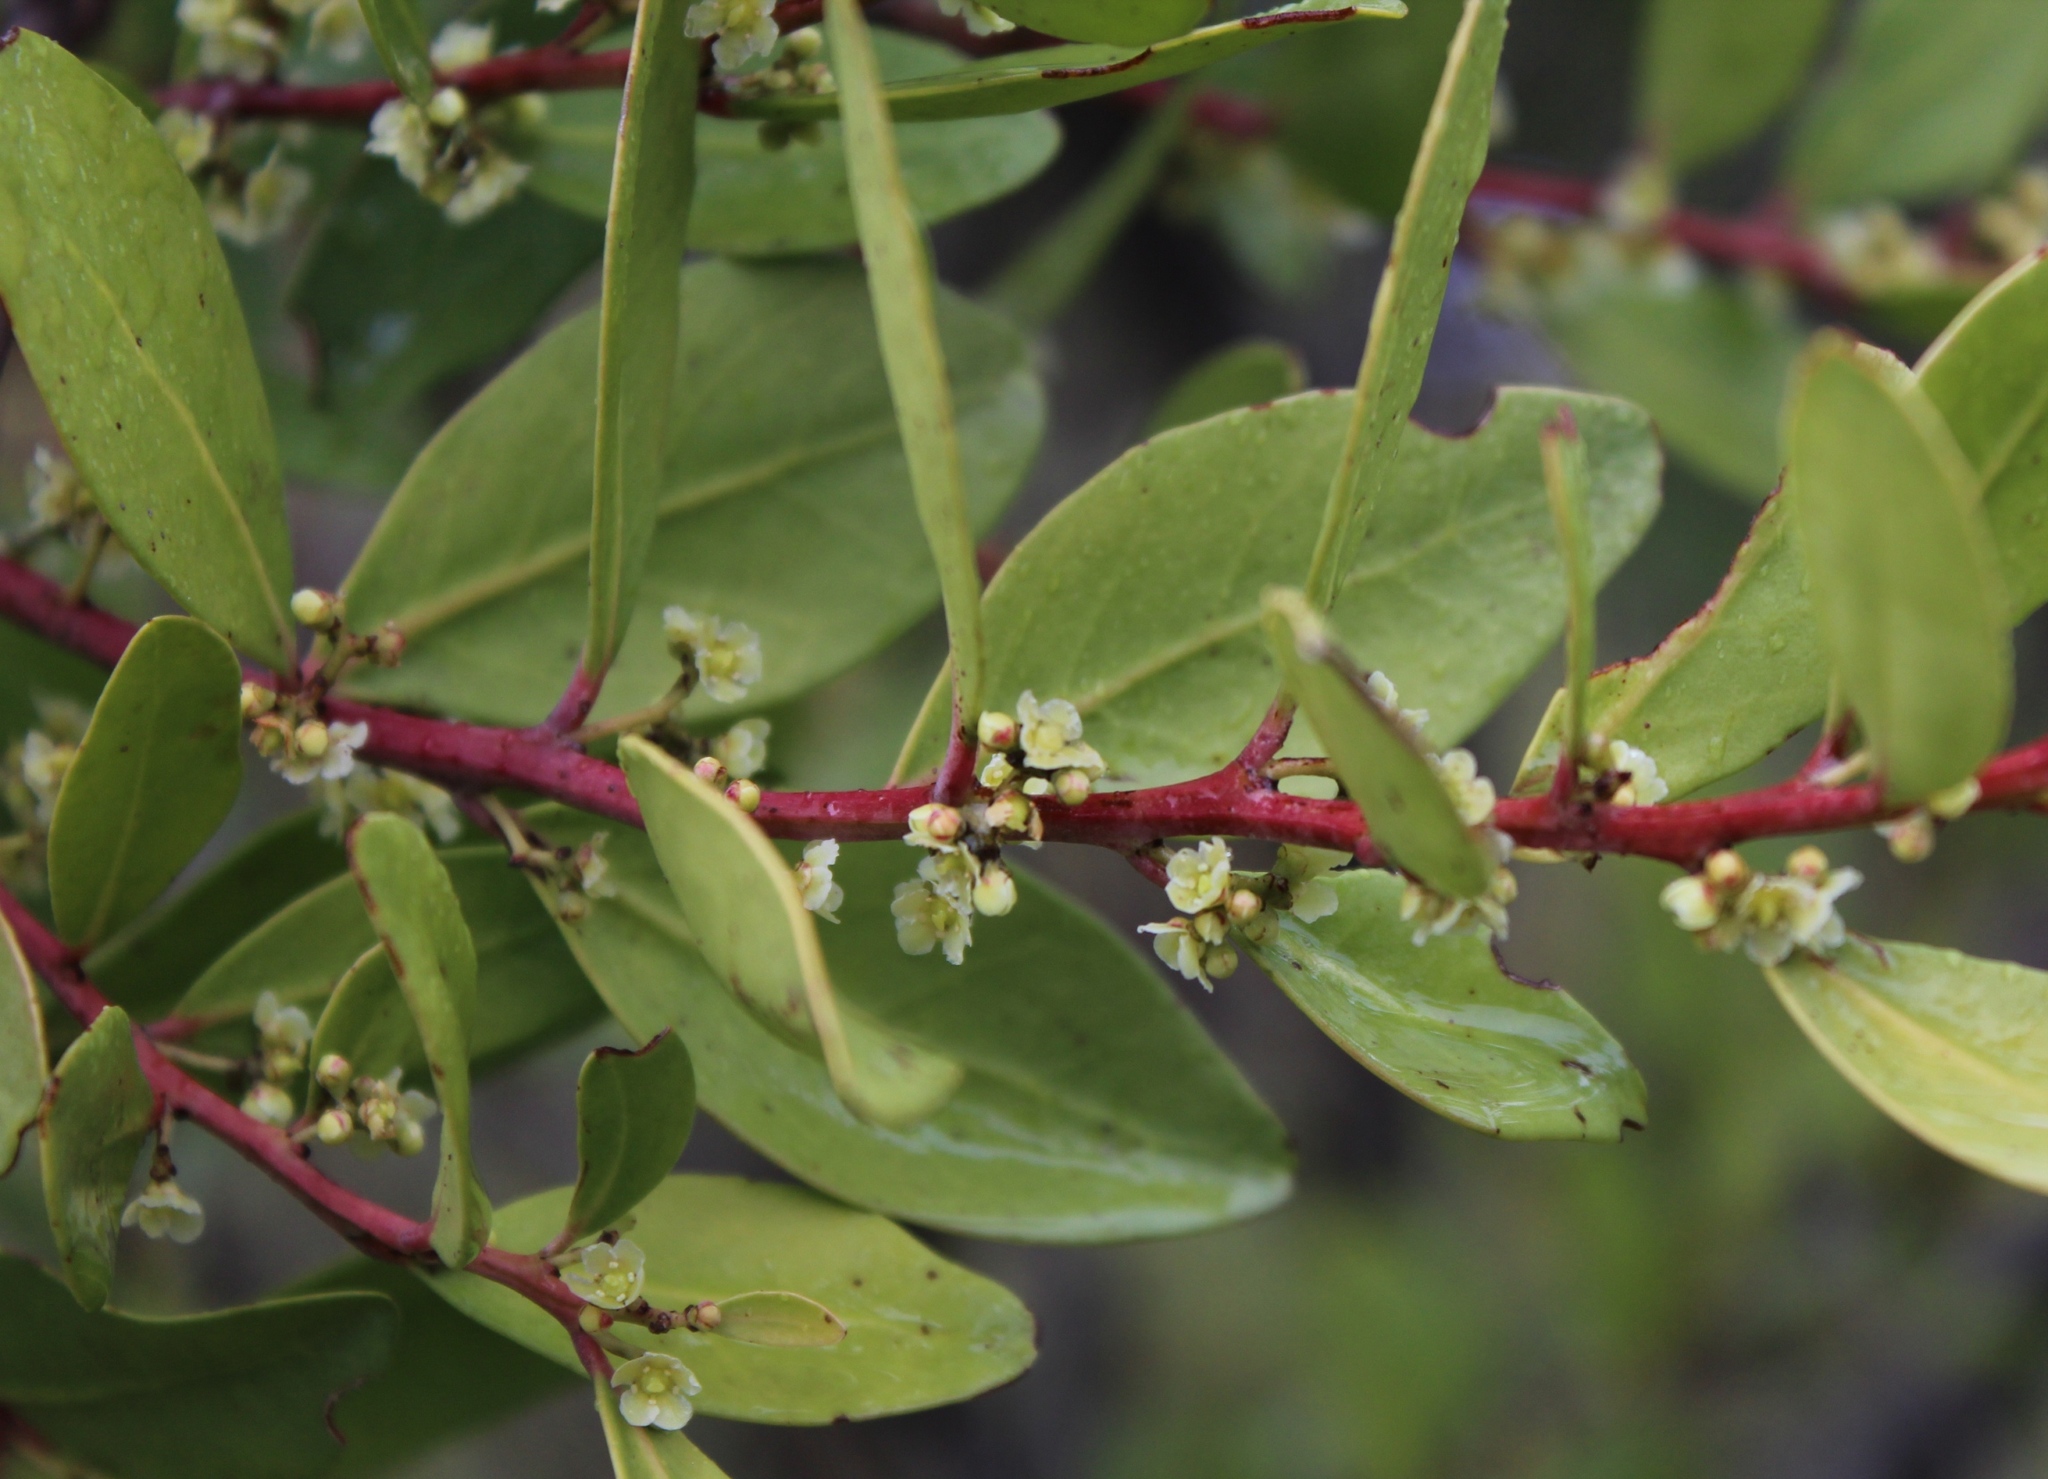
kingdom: Plantae
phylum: Tracheophyta
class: Magnoliopsida
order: Celastrales
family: Celastraceae
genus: Pterocelastrus
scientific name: Pterocelastrus tricuspidatus
